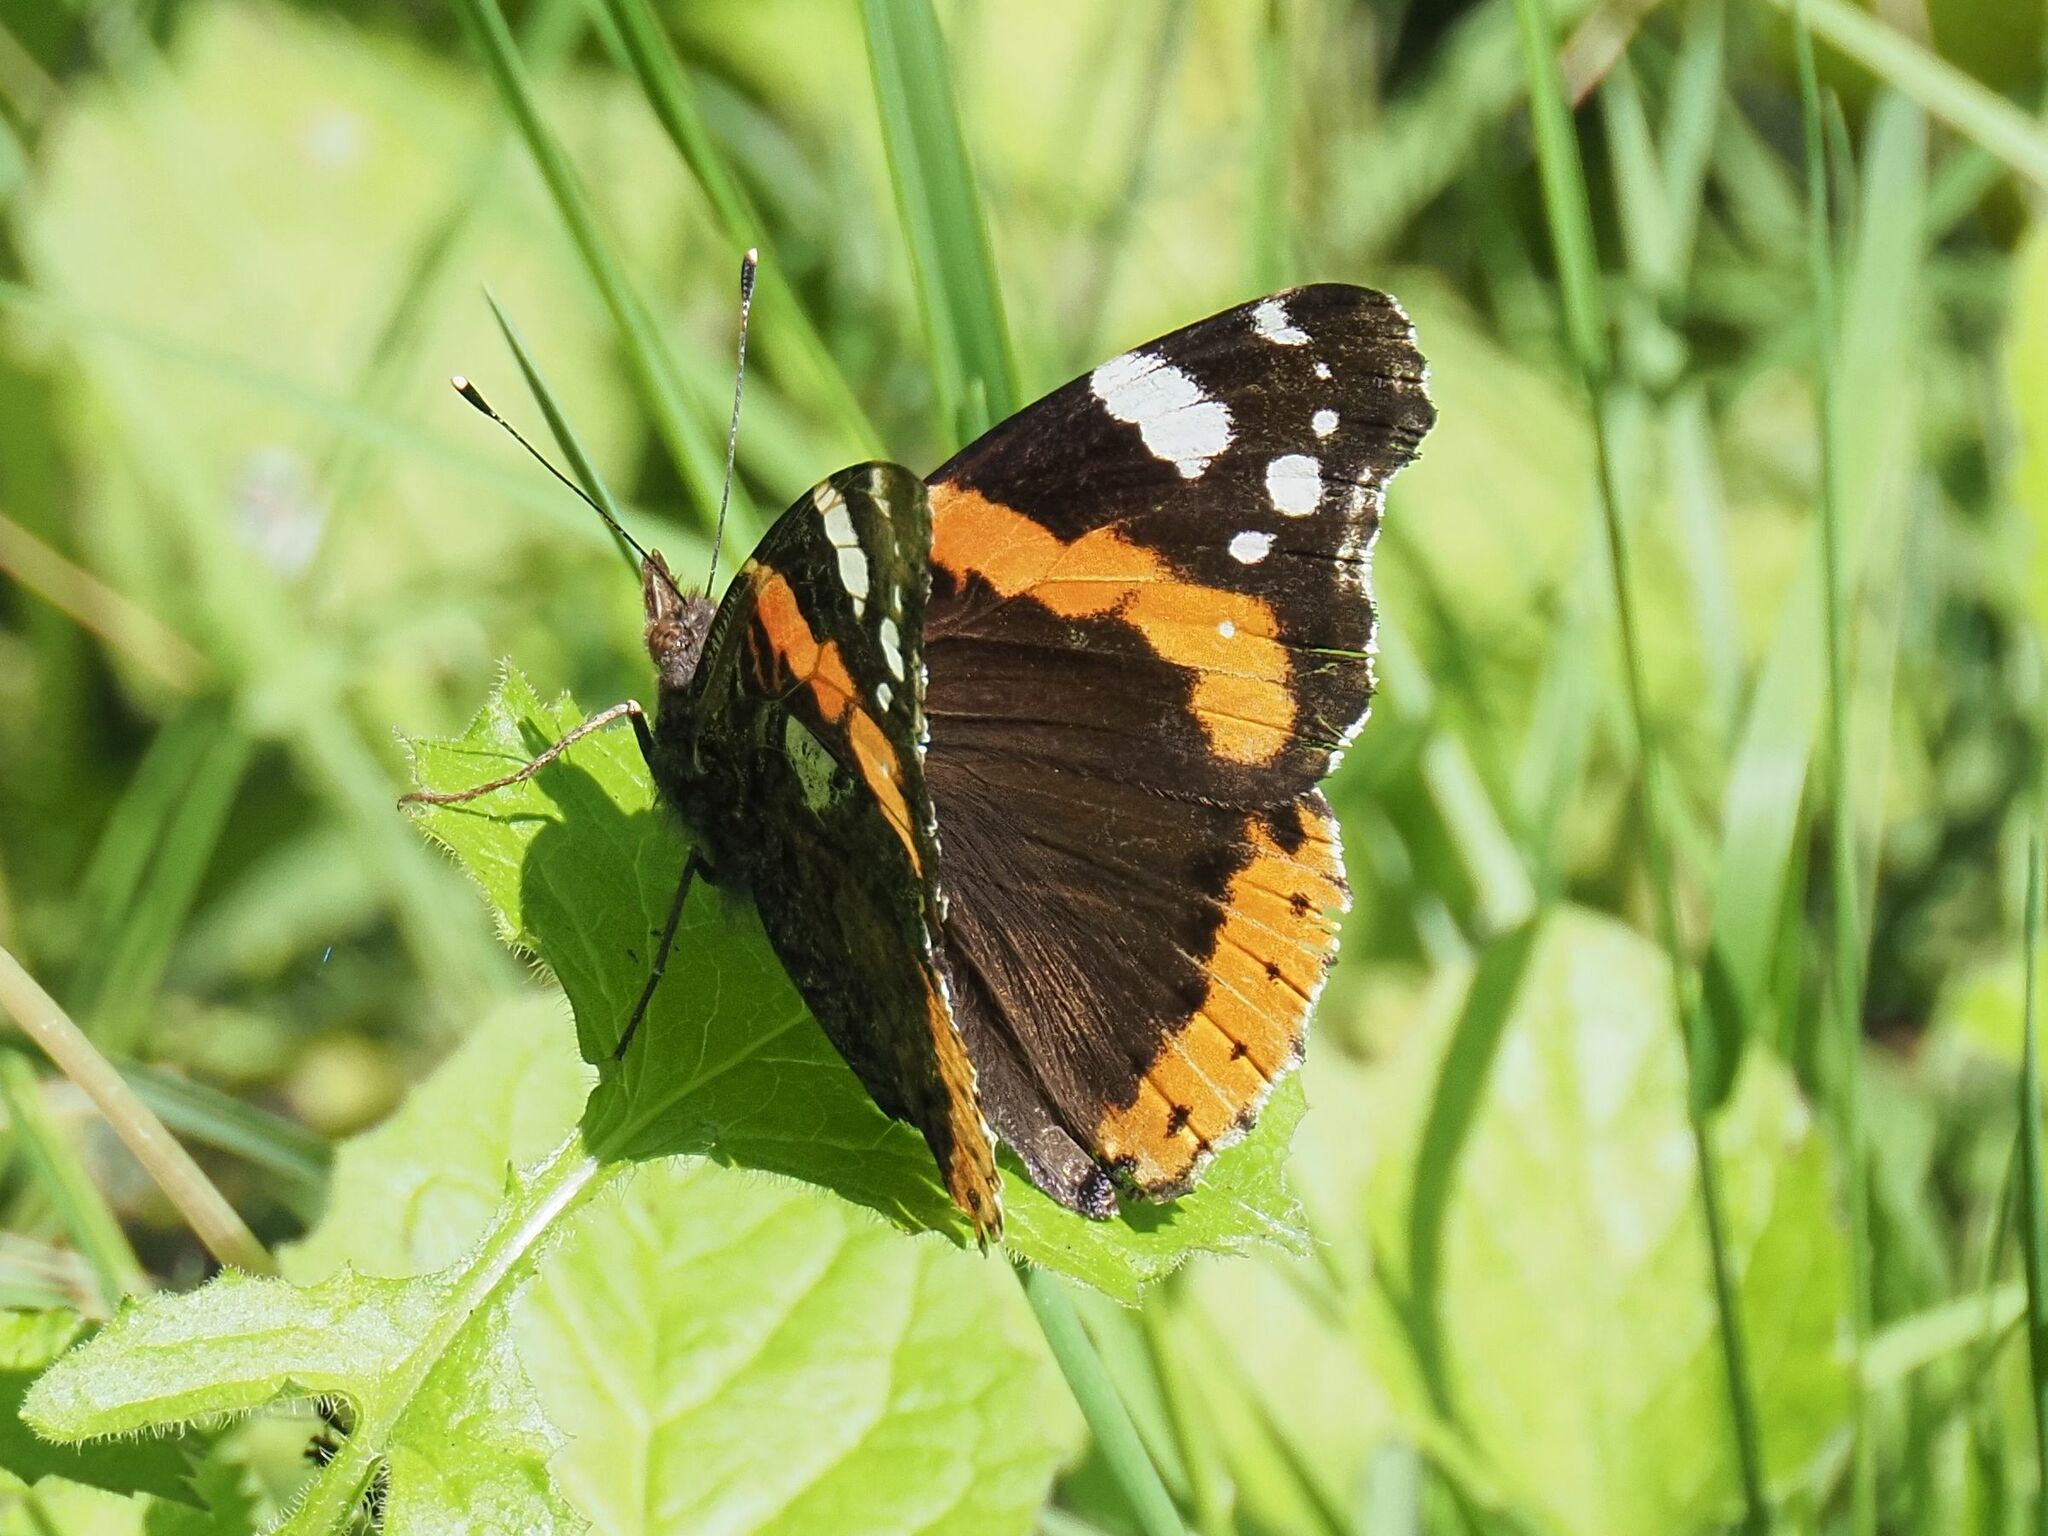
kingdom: Animalia
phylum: Arthropoda
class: Insecta
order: Lepidoptera
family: Nymphalidae
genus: Vanessa
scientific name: Vanessa atalanta
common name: Red admiral
